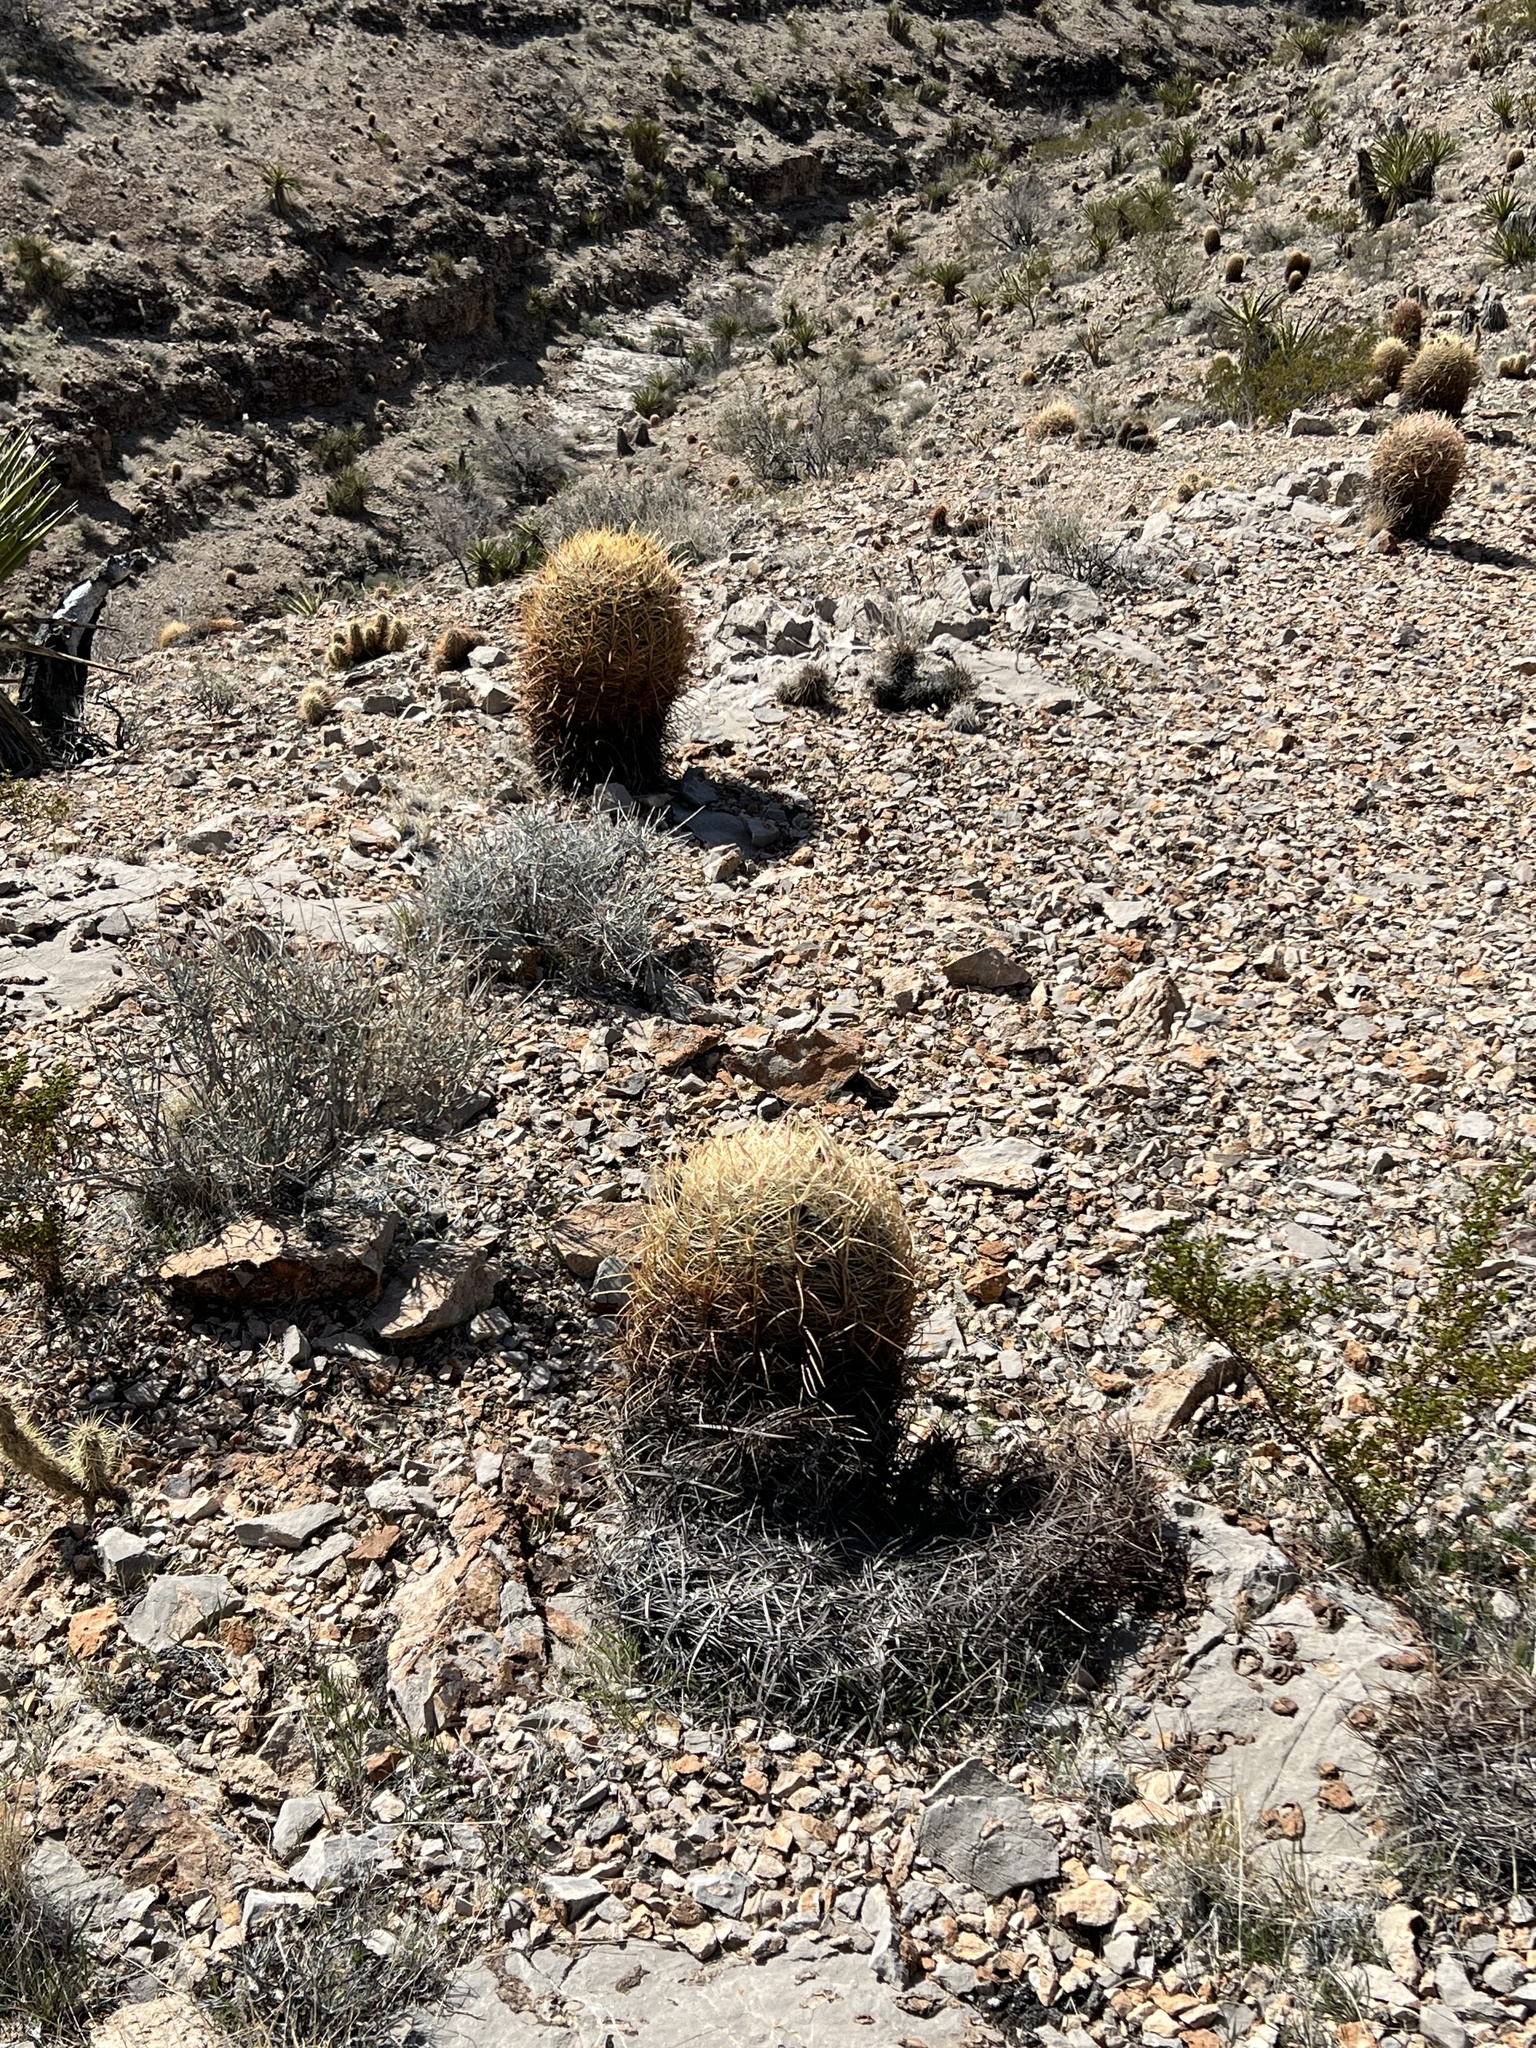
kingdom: Plantae
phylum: Tracheophyta
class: Magnoliopsida
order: Caryophyllales
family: Cactaceae
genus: Ferocactus
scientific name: Ferocactus cylindraceus
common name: California barrel cactus
